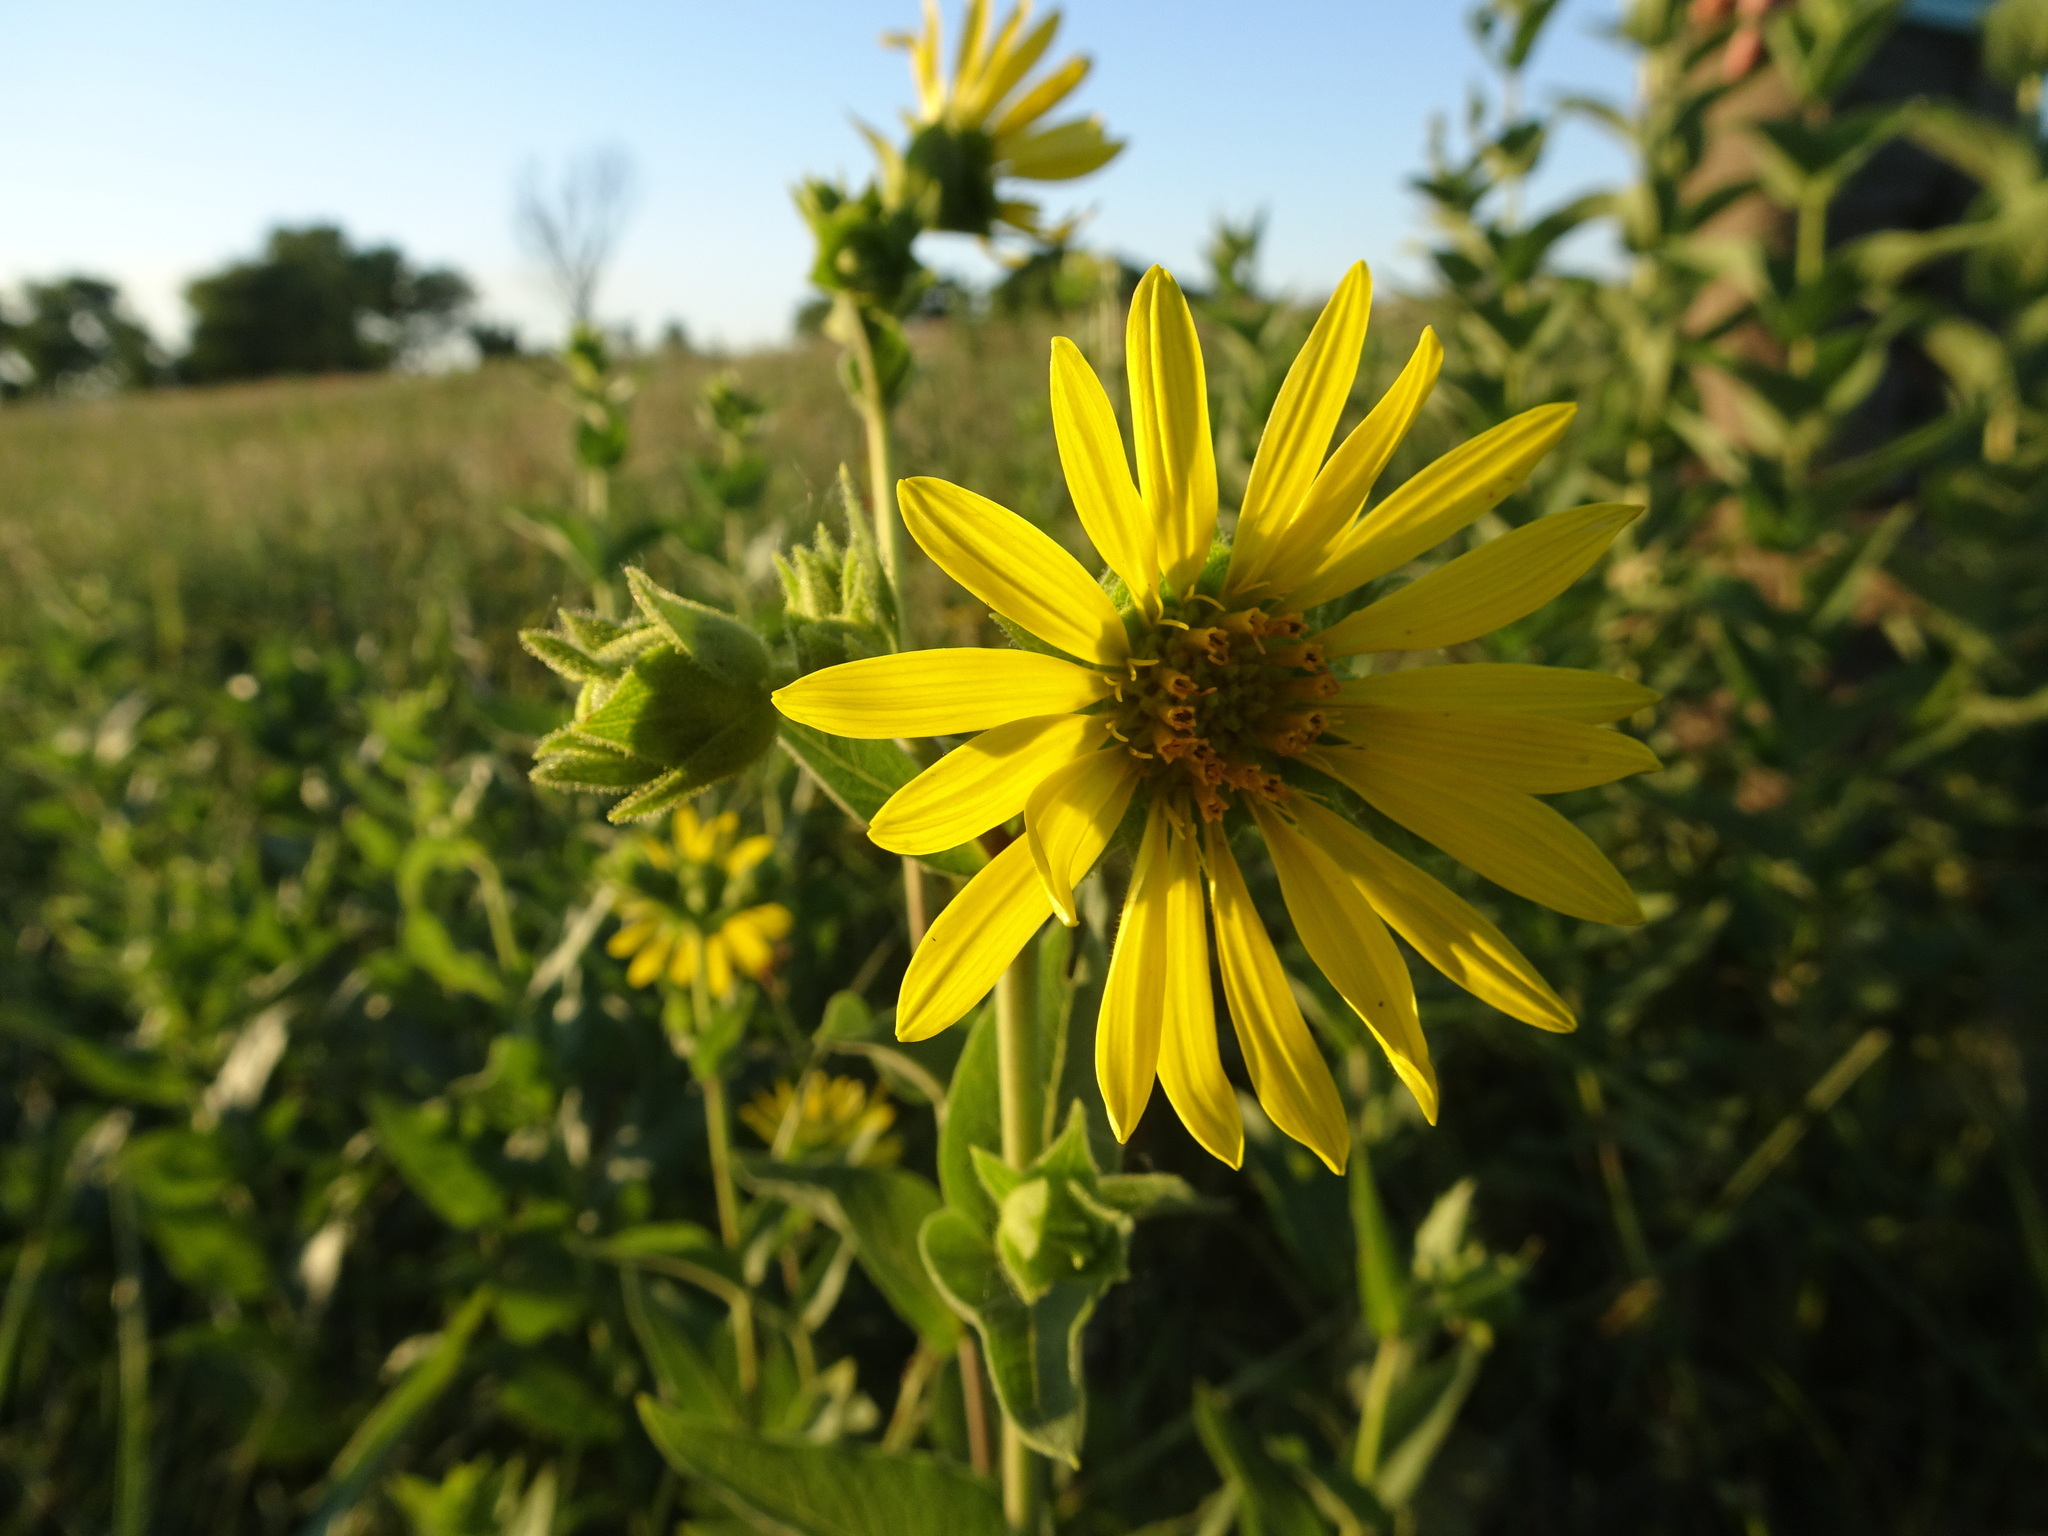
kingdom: Plantae
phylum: Tracheophyta
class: Magnoliopsida
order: Asterales
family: Asteraceae
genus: Silphium
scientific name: Silphium integrifolium
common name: Whole-leaf rosinweed
